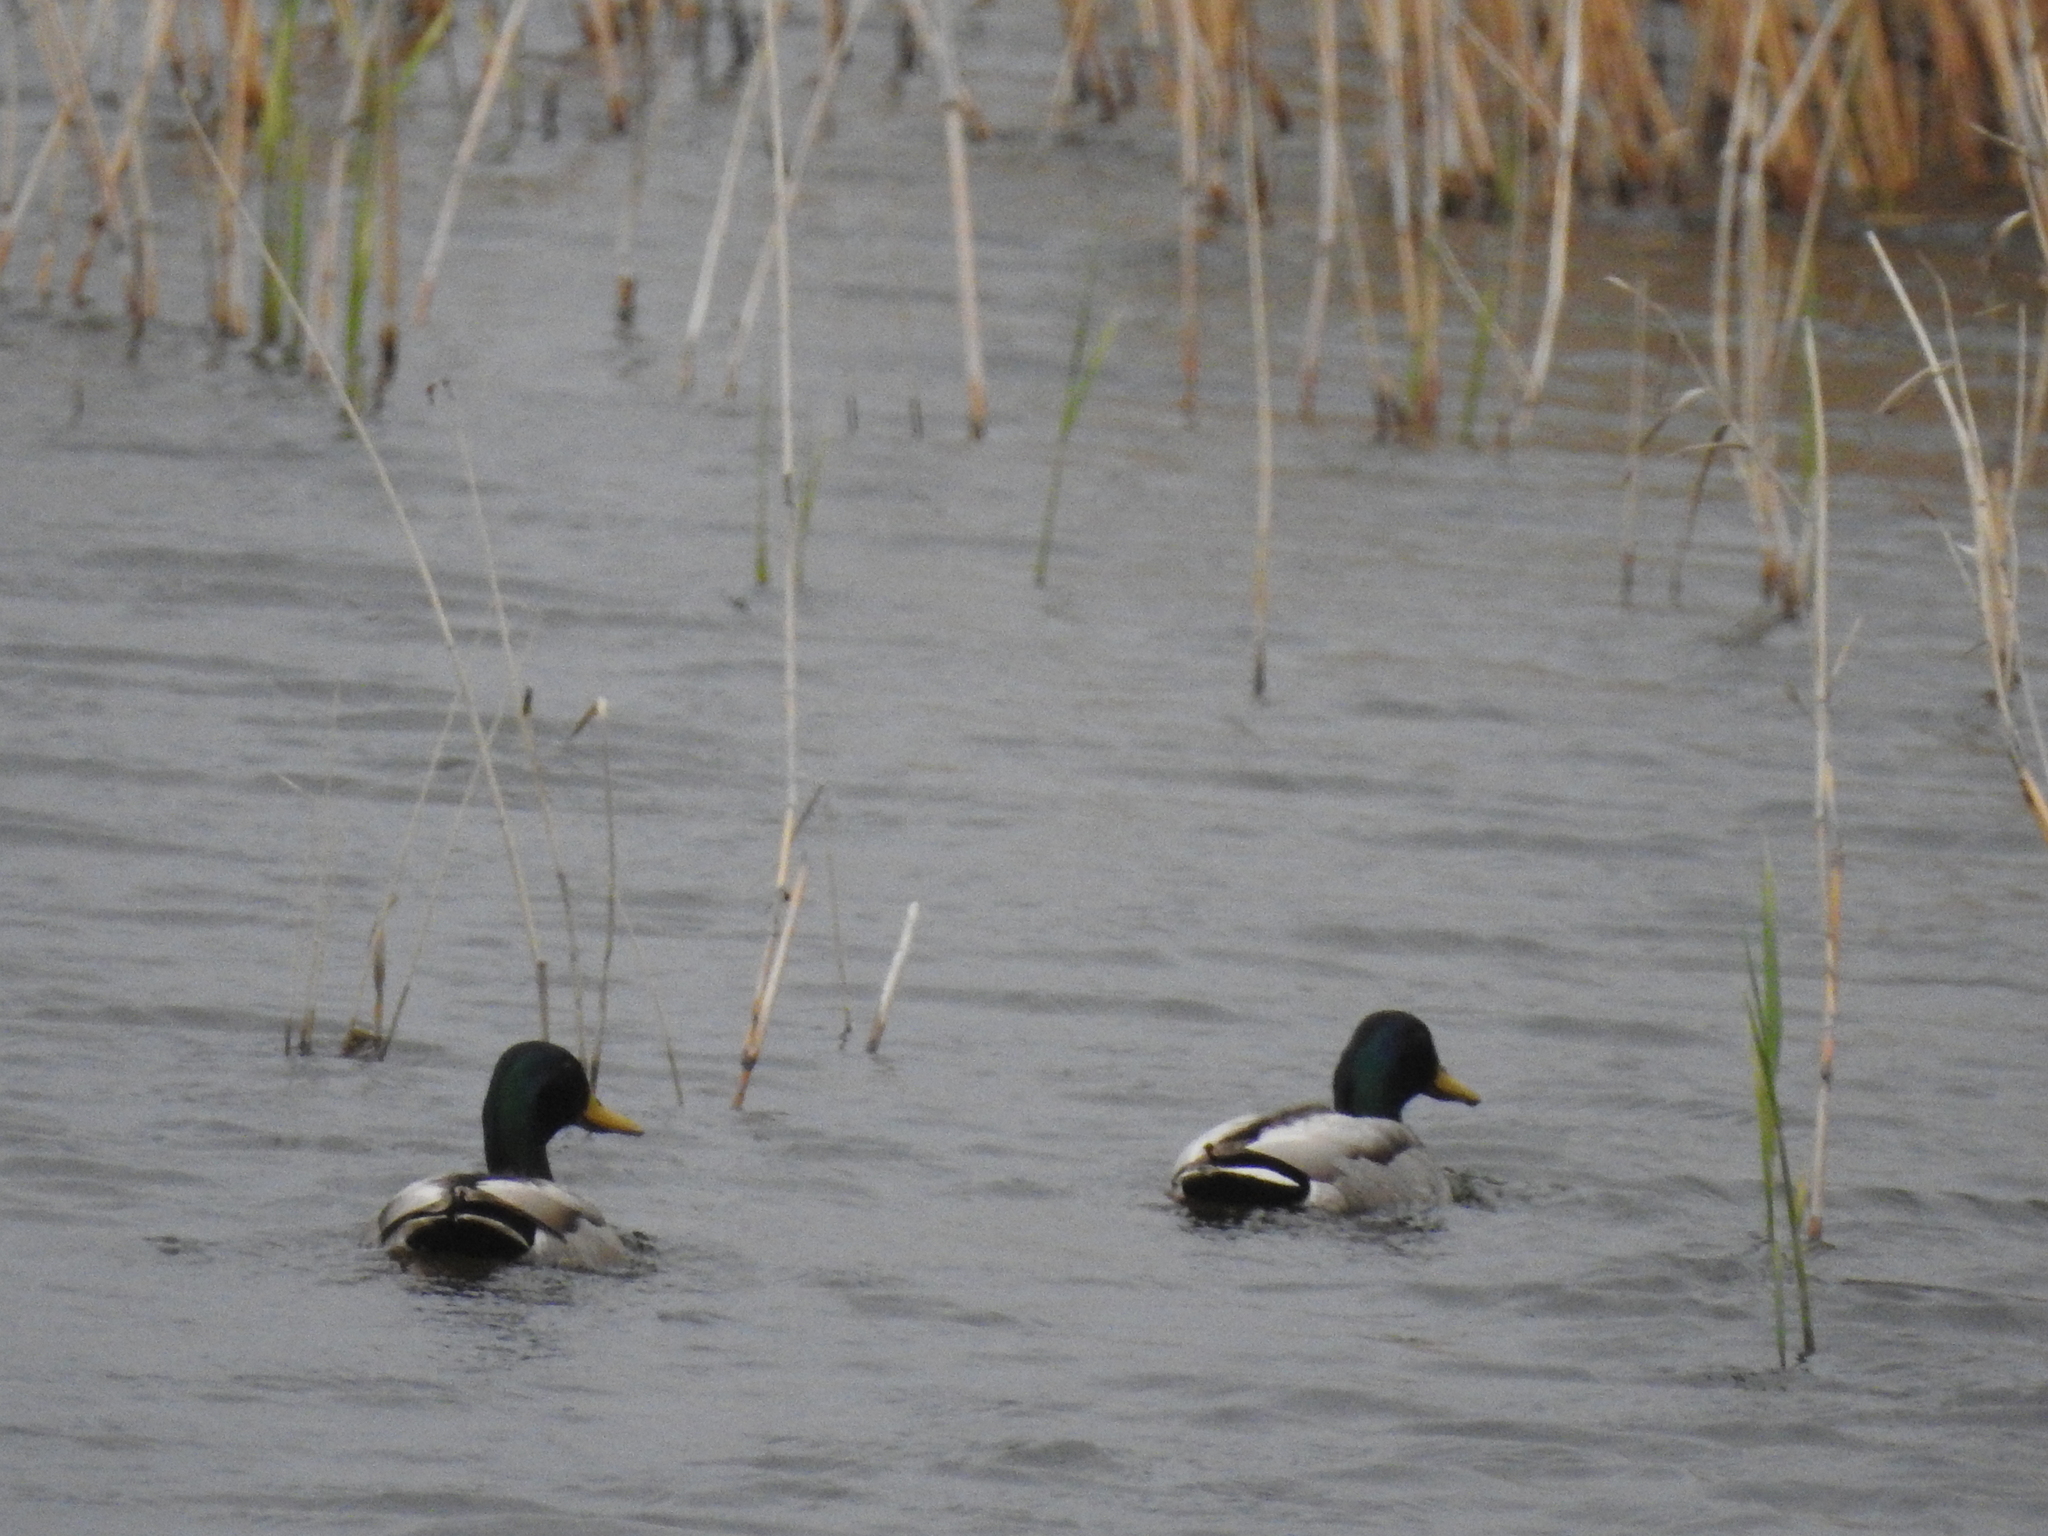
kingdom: Animalia
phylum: Chordata
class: Aves
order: Anseriformes
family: Anatidae
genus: Anas
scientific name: Anas platyrhynchos
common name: Mallard
